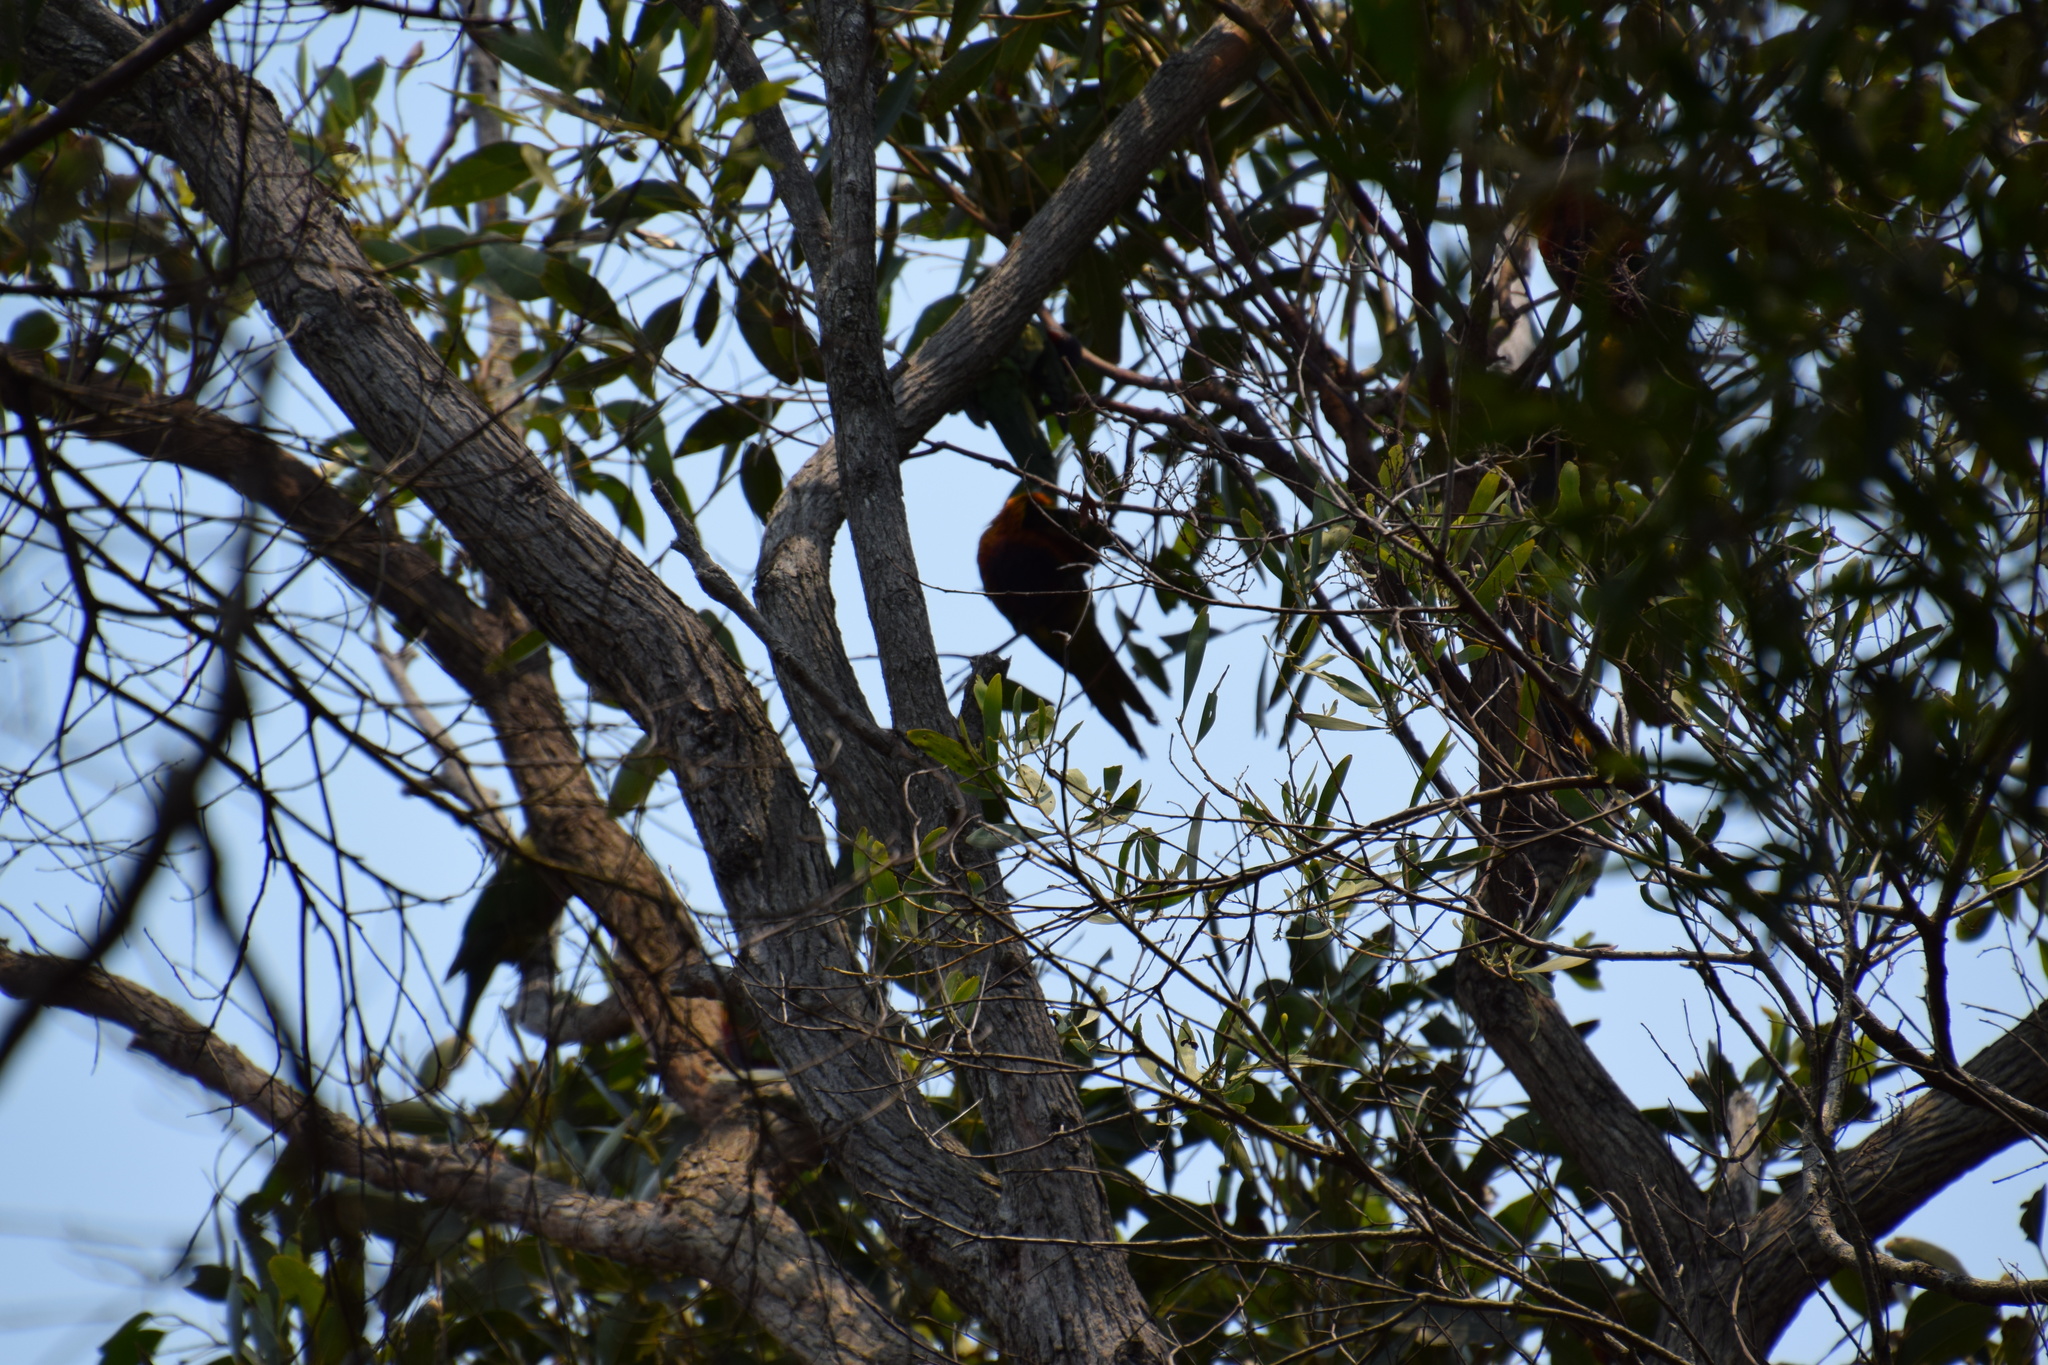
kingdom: Animalia
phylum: Chordata
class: Aves
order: Psittaciformes
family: Psittacidae
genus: Trichoglossus
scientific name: Trichoglossus haematodus
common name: Coconut lorikeet
